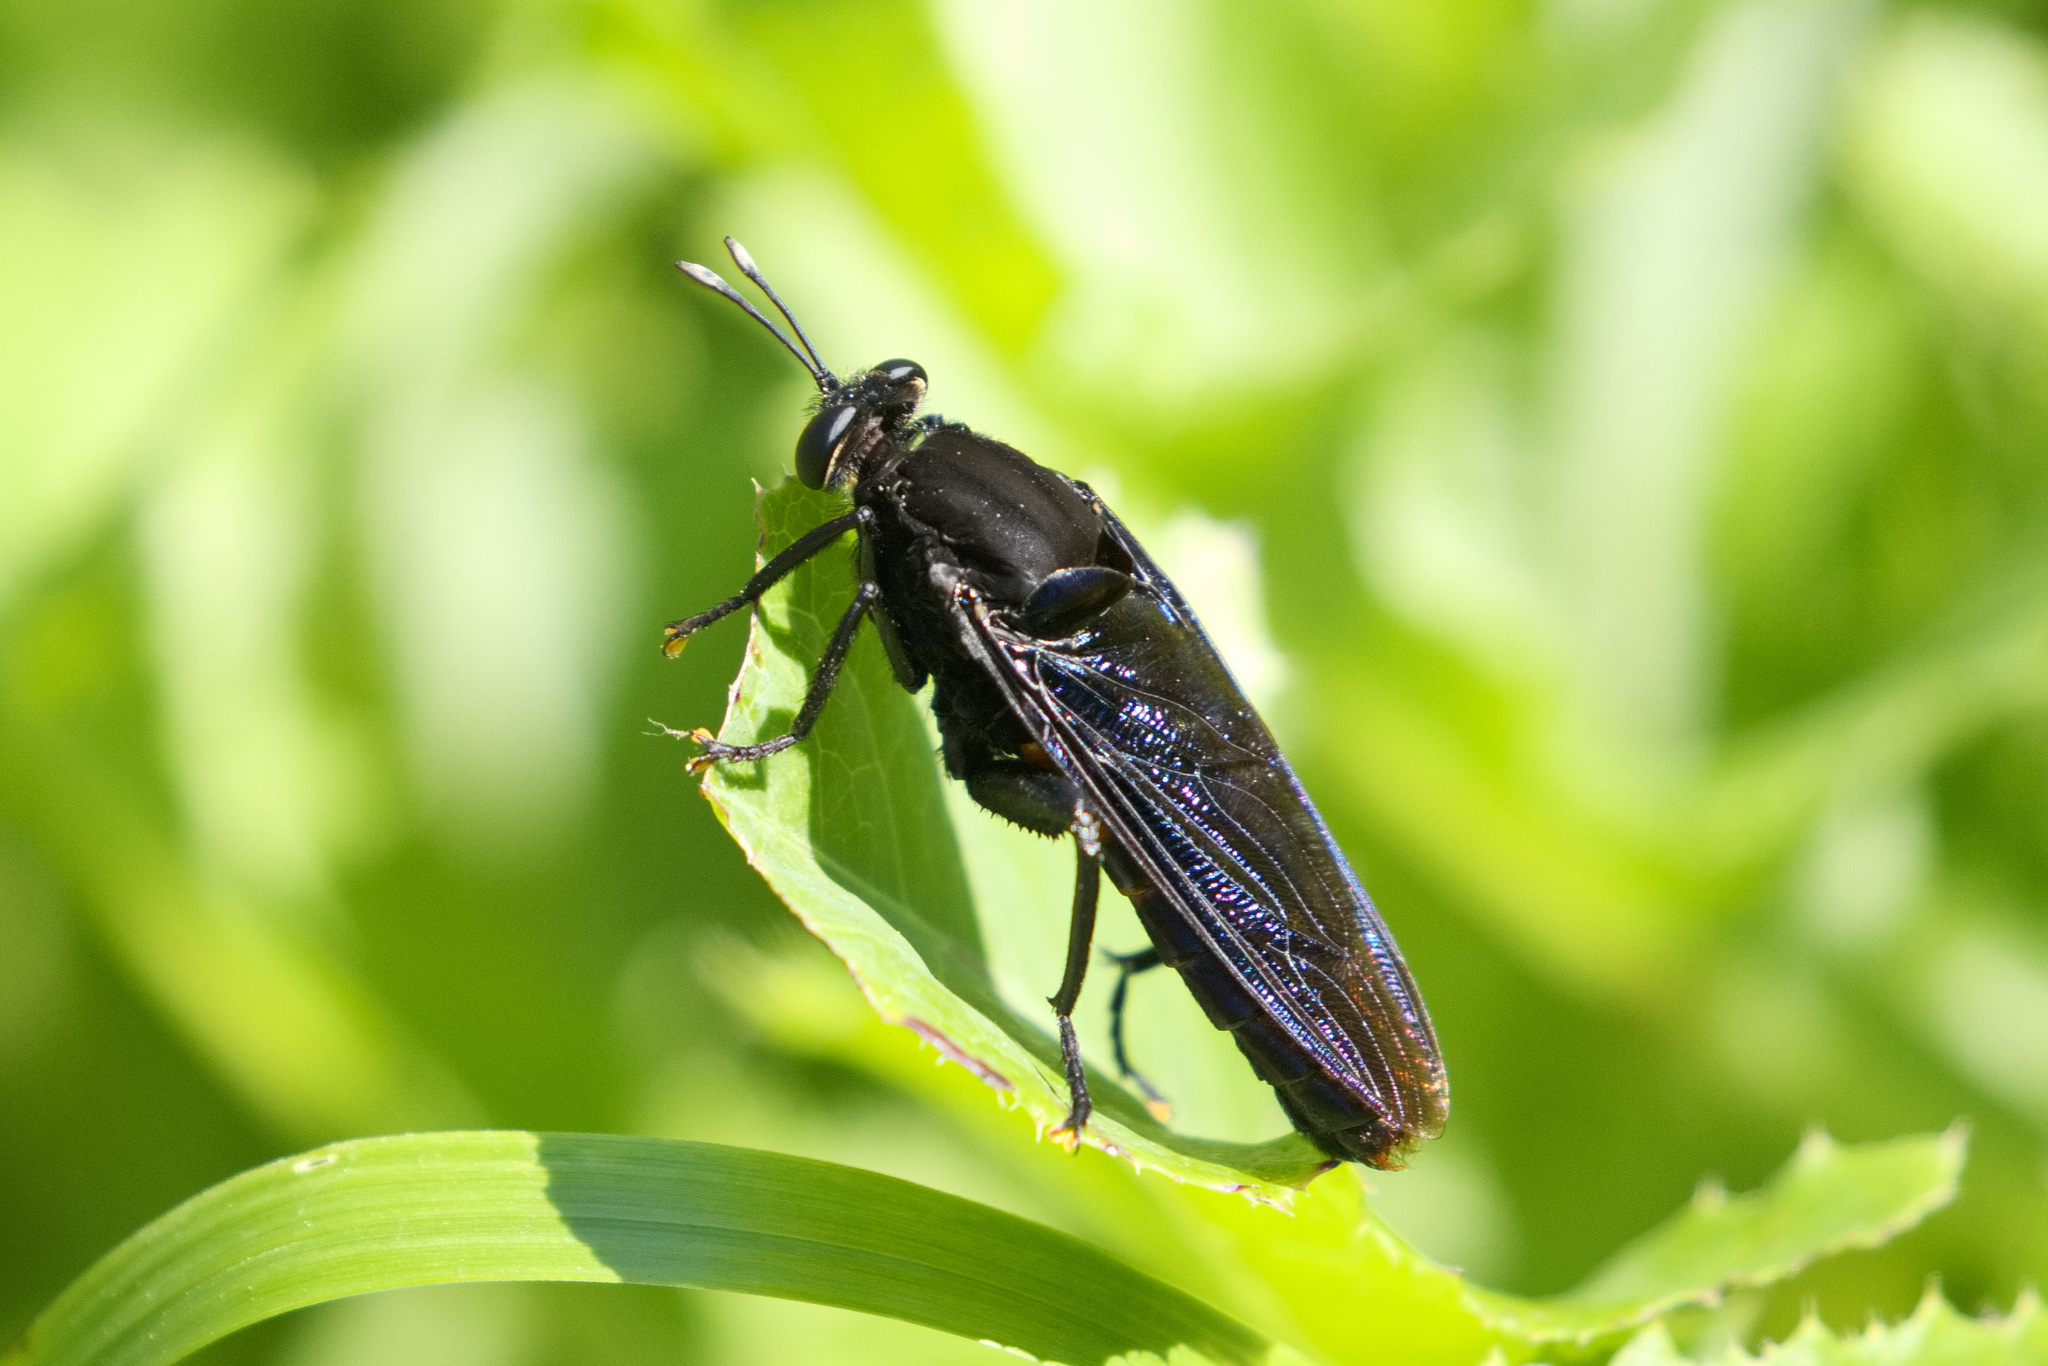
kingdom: Animalia
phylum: Arthropoda
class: Insecta
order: Diptera
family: Mydidae
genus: Mydas
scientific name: Mydas clavatus
